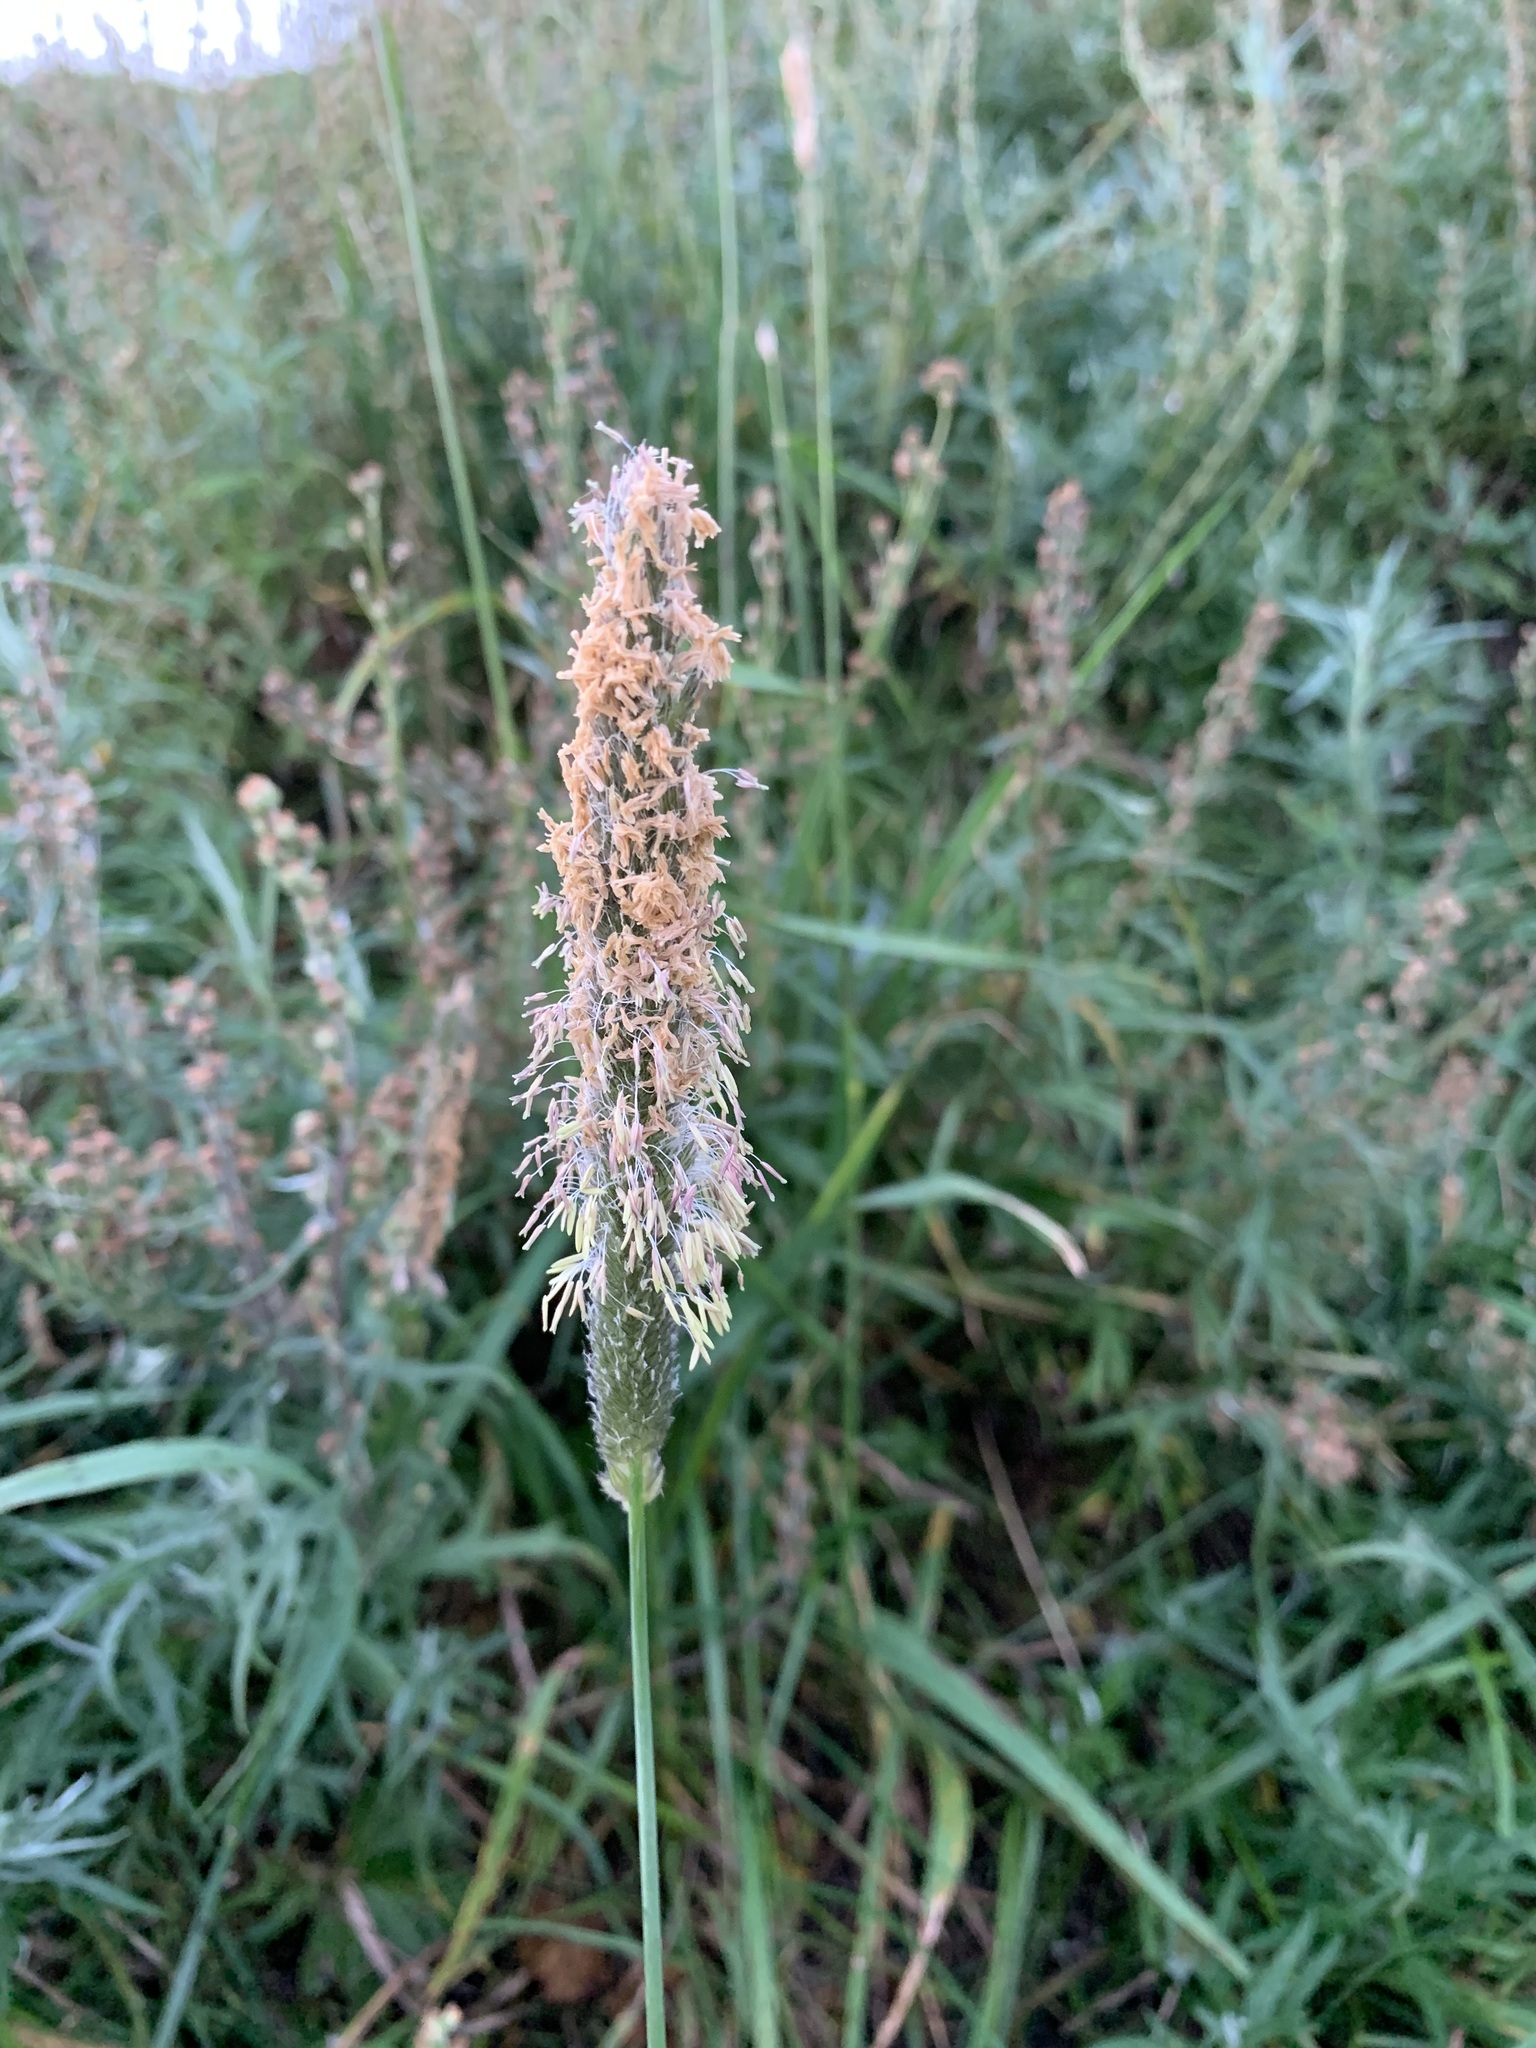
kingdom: Plantae
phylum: Tracheophyta
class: Liliopsida
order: Poales
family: Poaceae
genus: Alopecurus
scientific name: Alopecurus pratensis
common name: Meadow foxtail
